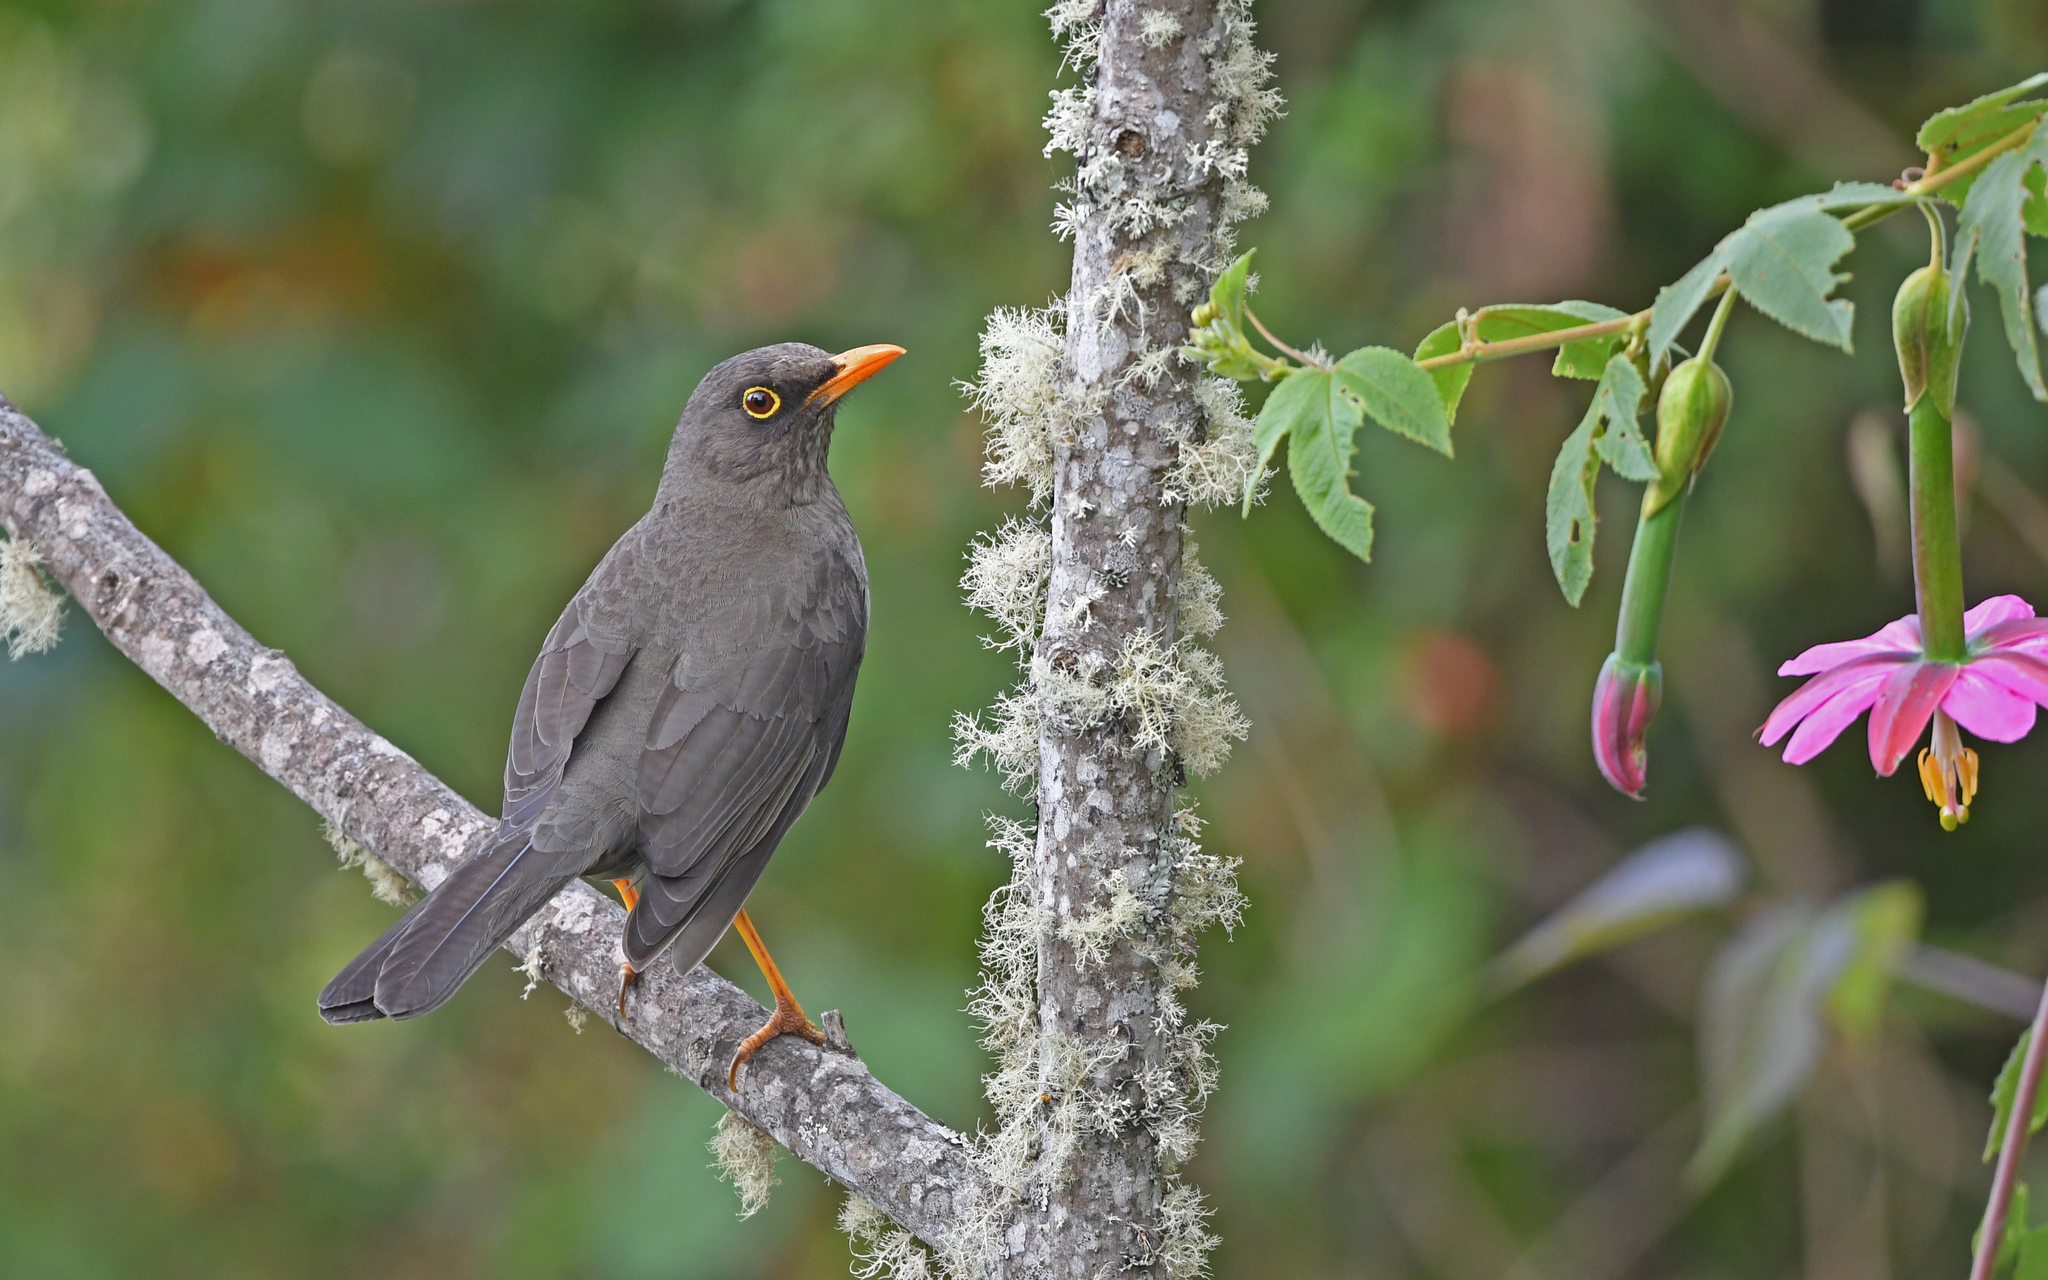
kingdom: Animalia
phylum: Chordata
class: Aves
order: Passeriformes
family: Turdidae
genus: Turdus
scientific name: Turdus fuscater
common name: Great thrush
